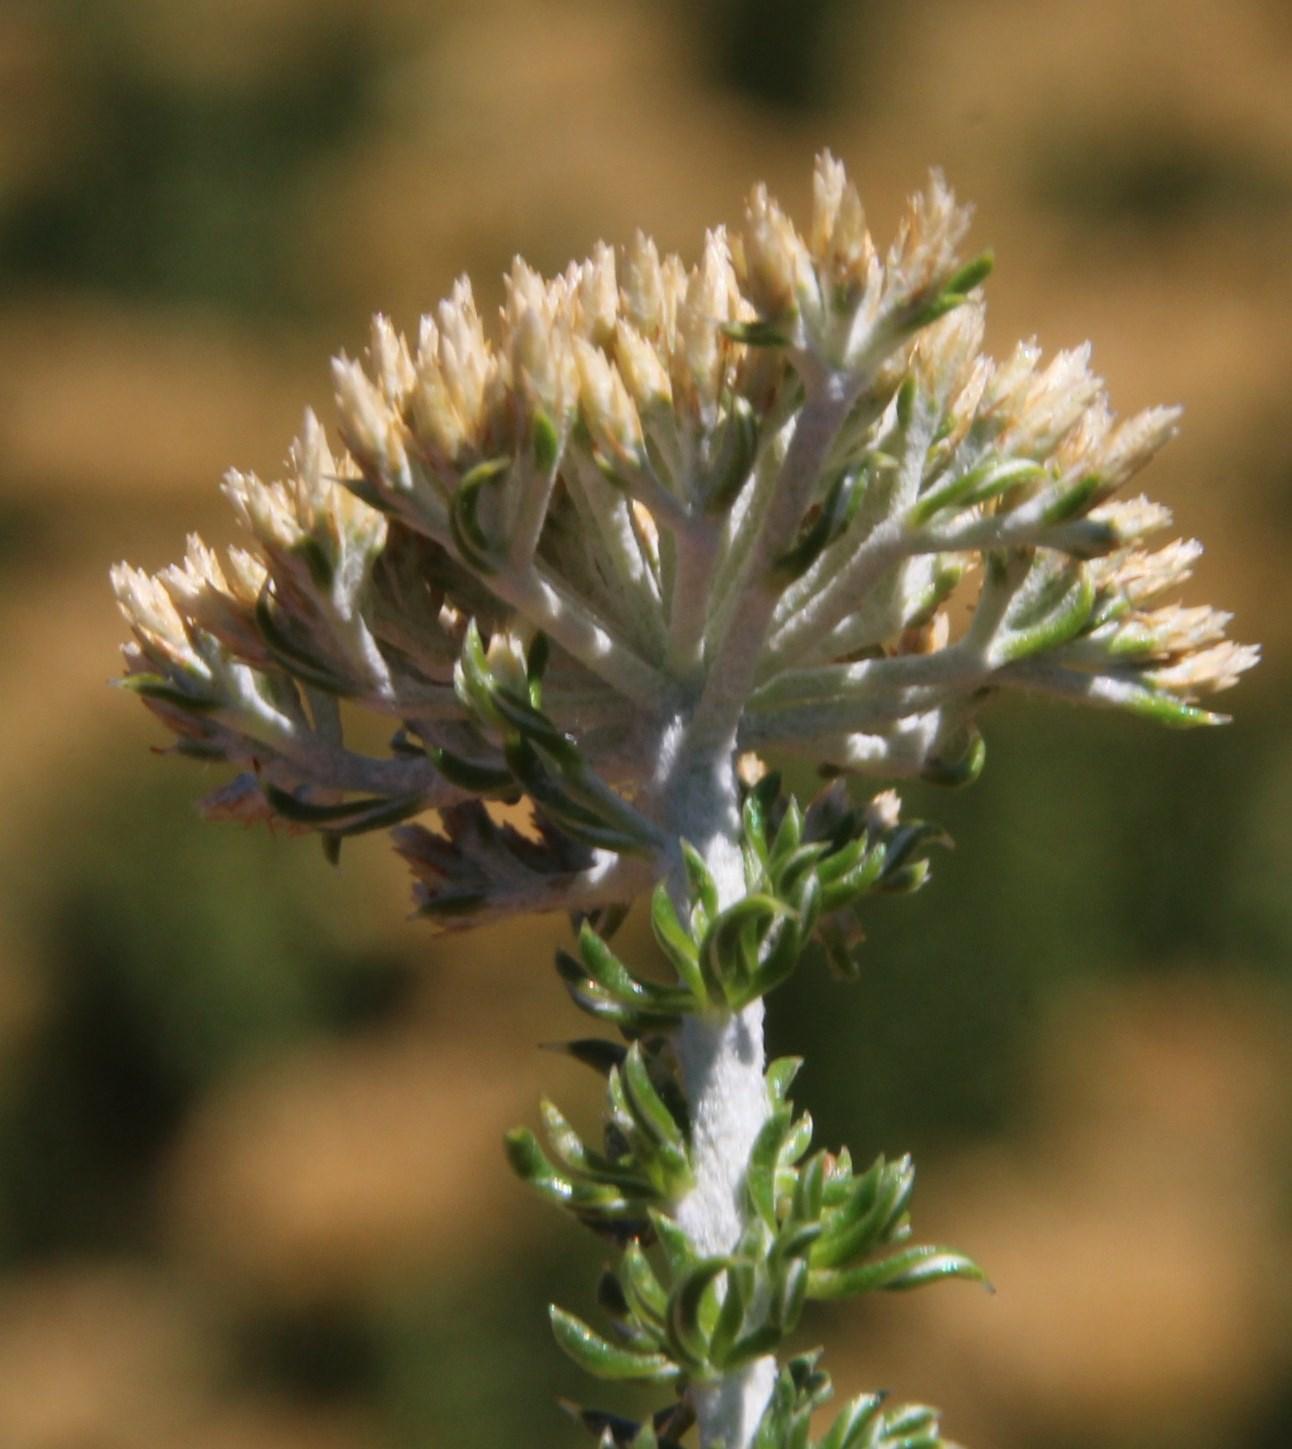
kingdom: Plantae
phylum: Tracheophyta
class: Magnoliopsida
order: Asterales
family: Asteraceae
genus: Metalasia
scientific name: Metalasia muricata
